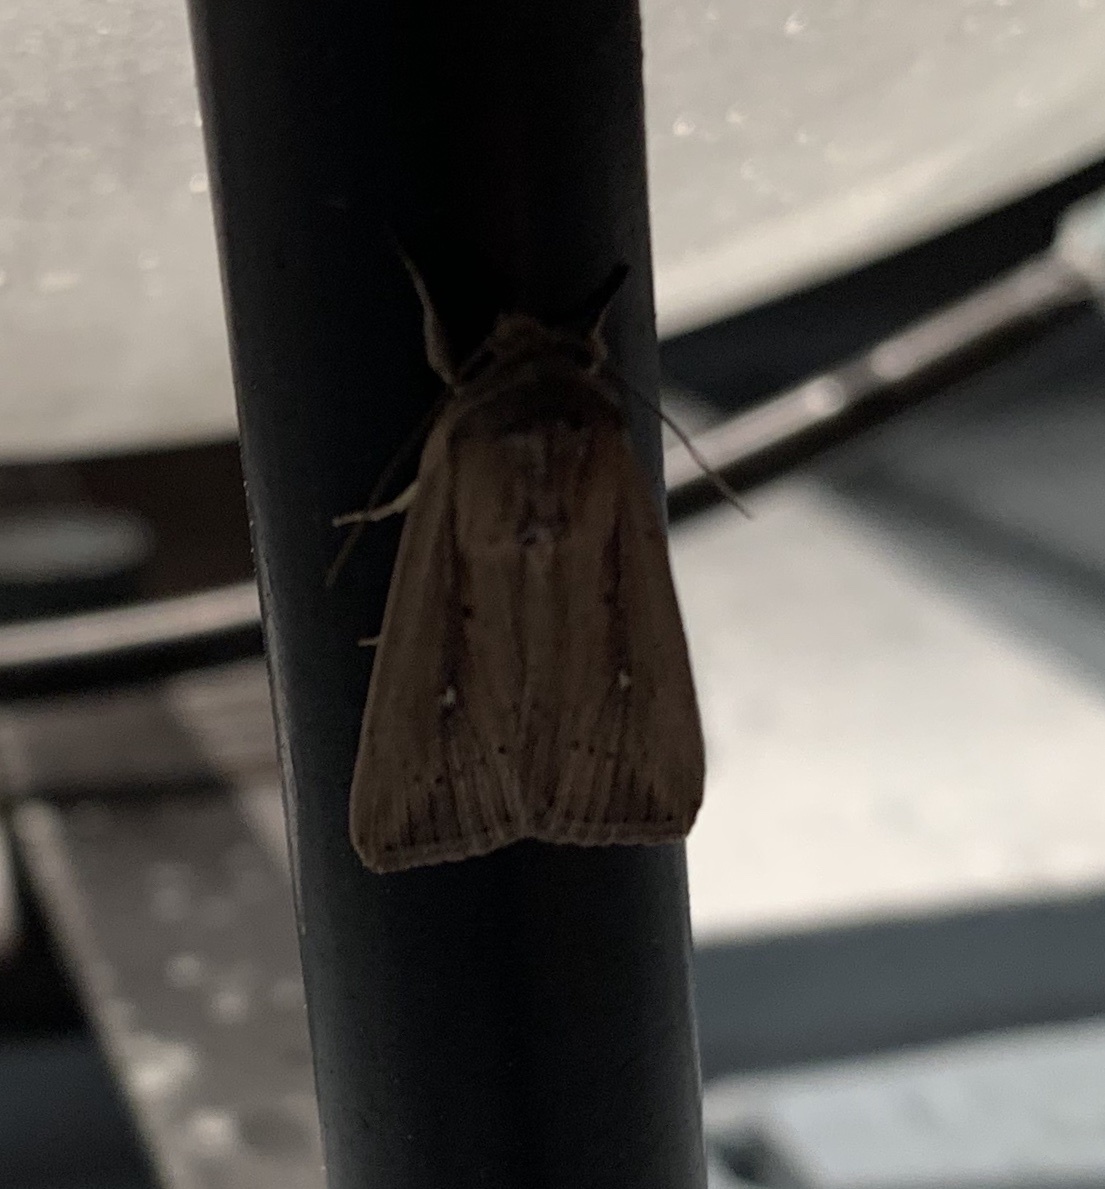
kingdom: Animalia
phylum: Arthropoda
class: Insecta
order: Lepidoptera
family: Noctuidae
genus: Leucania
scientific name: Leucania incognita
